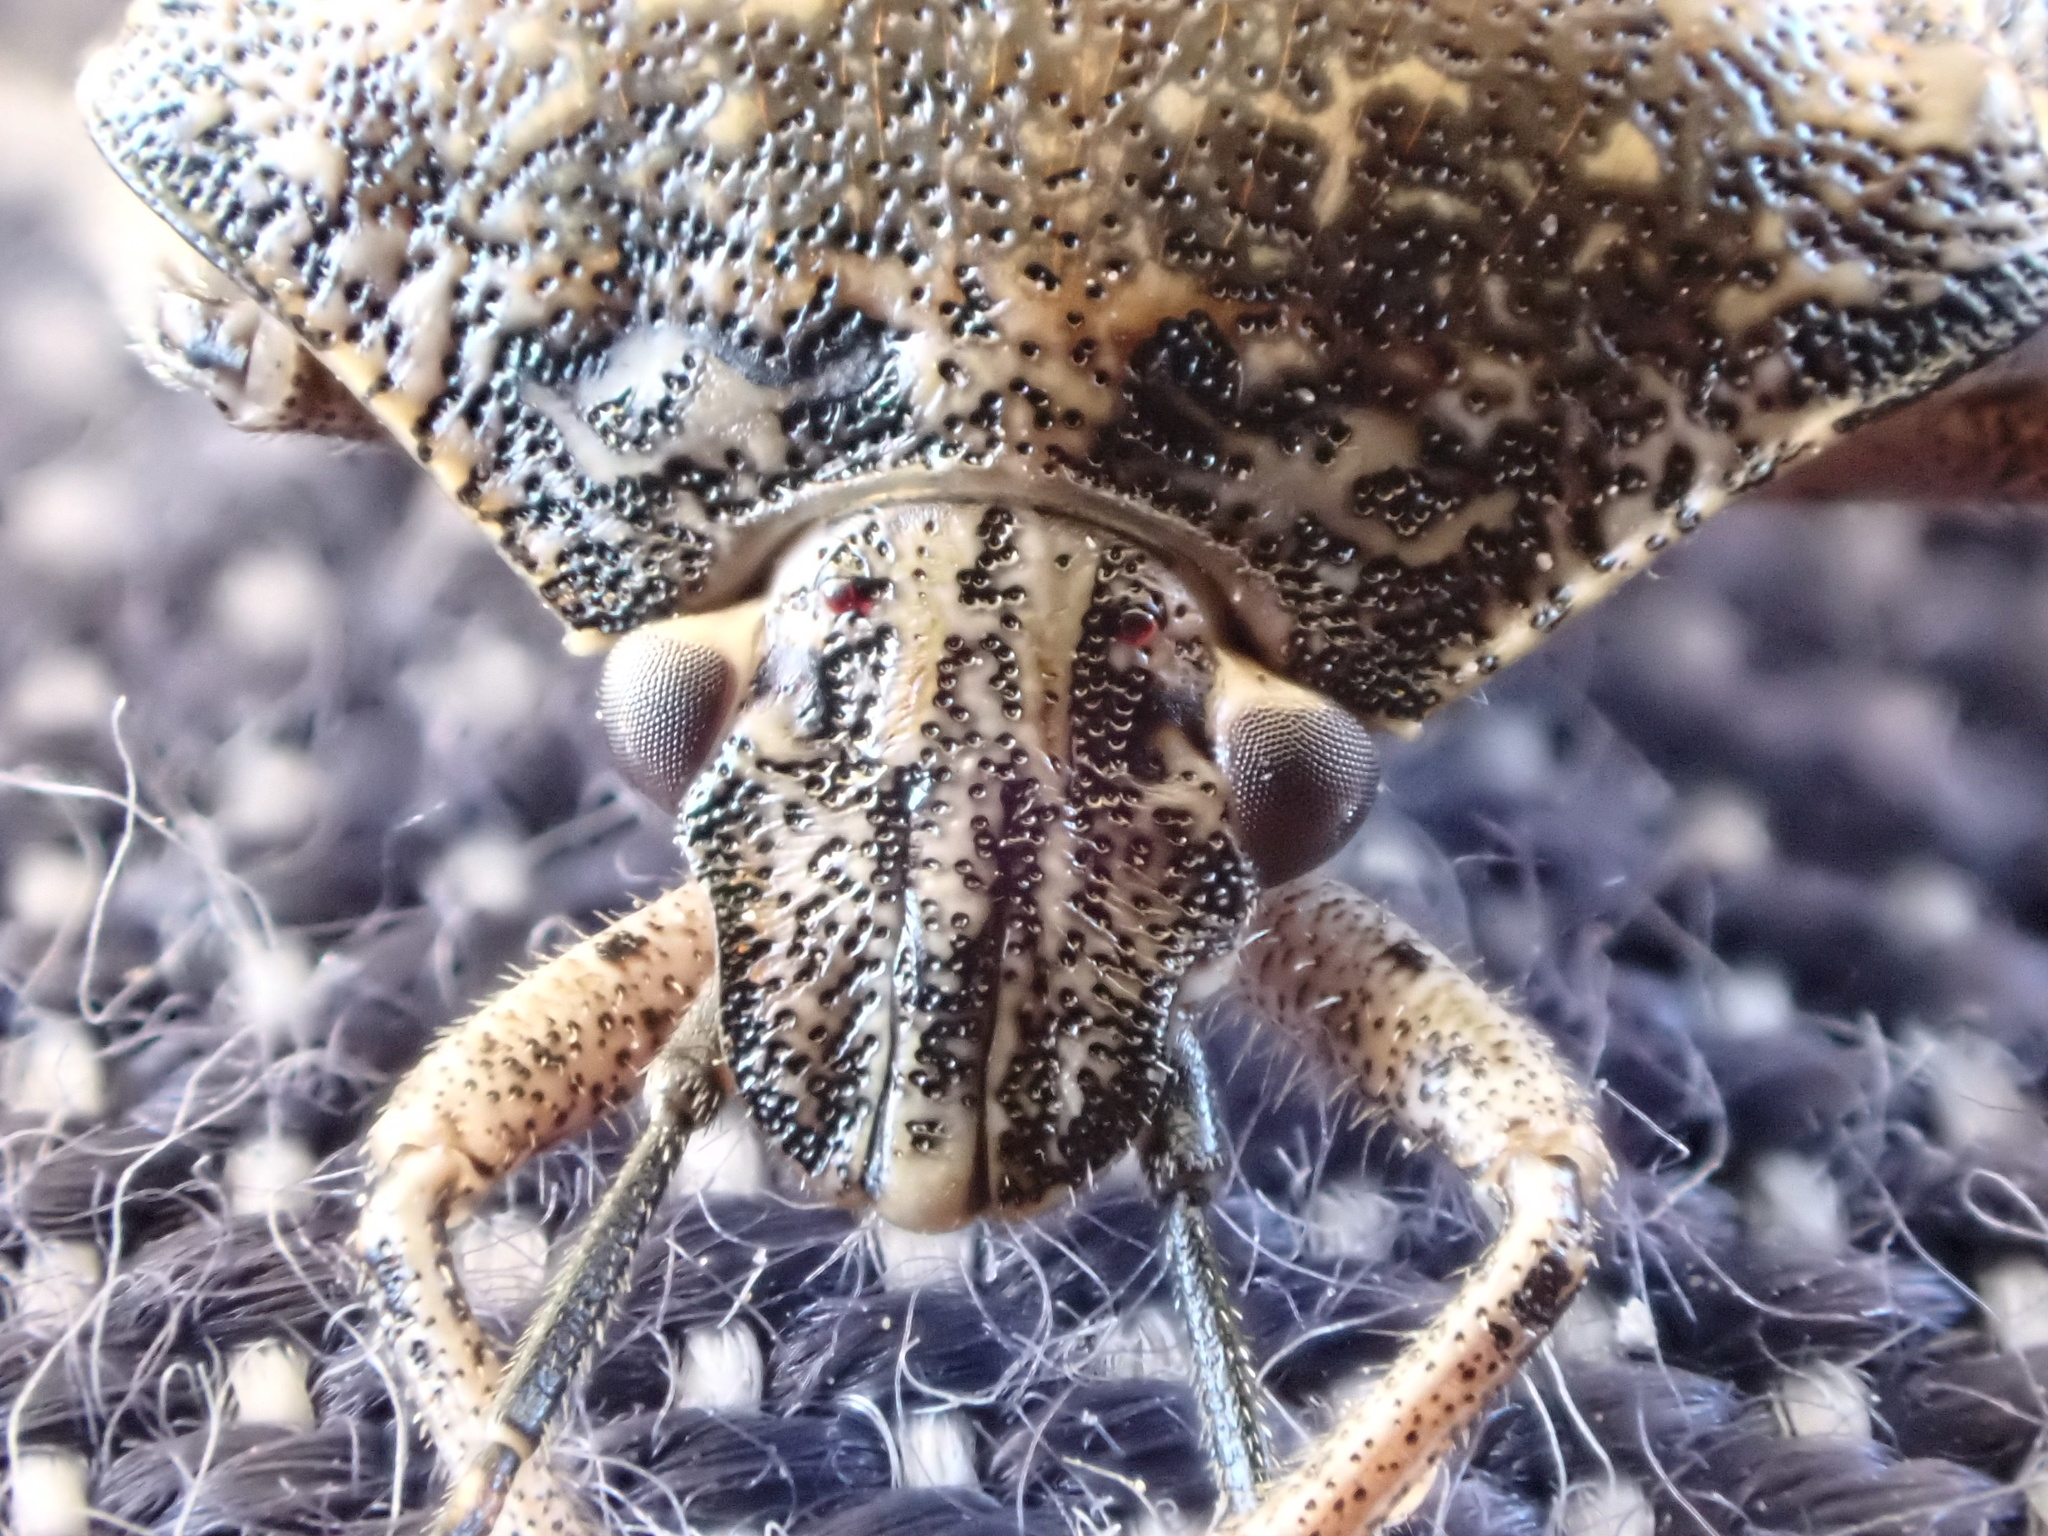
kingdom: Animalia
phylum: Arthropoda
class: Insecta
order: Hemiptera
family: Pentatomidae
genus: Rhaphigaster
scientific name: Rhaphigaster nebulosa
